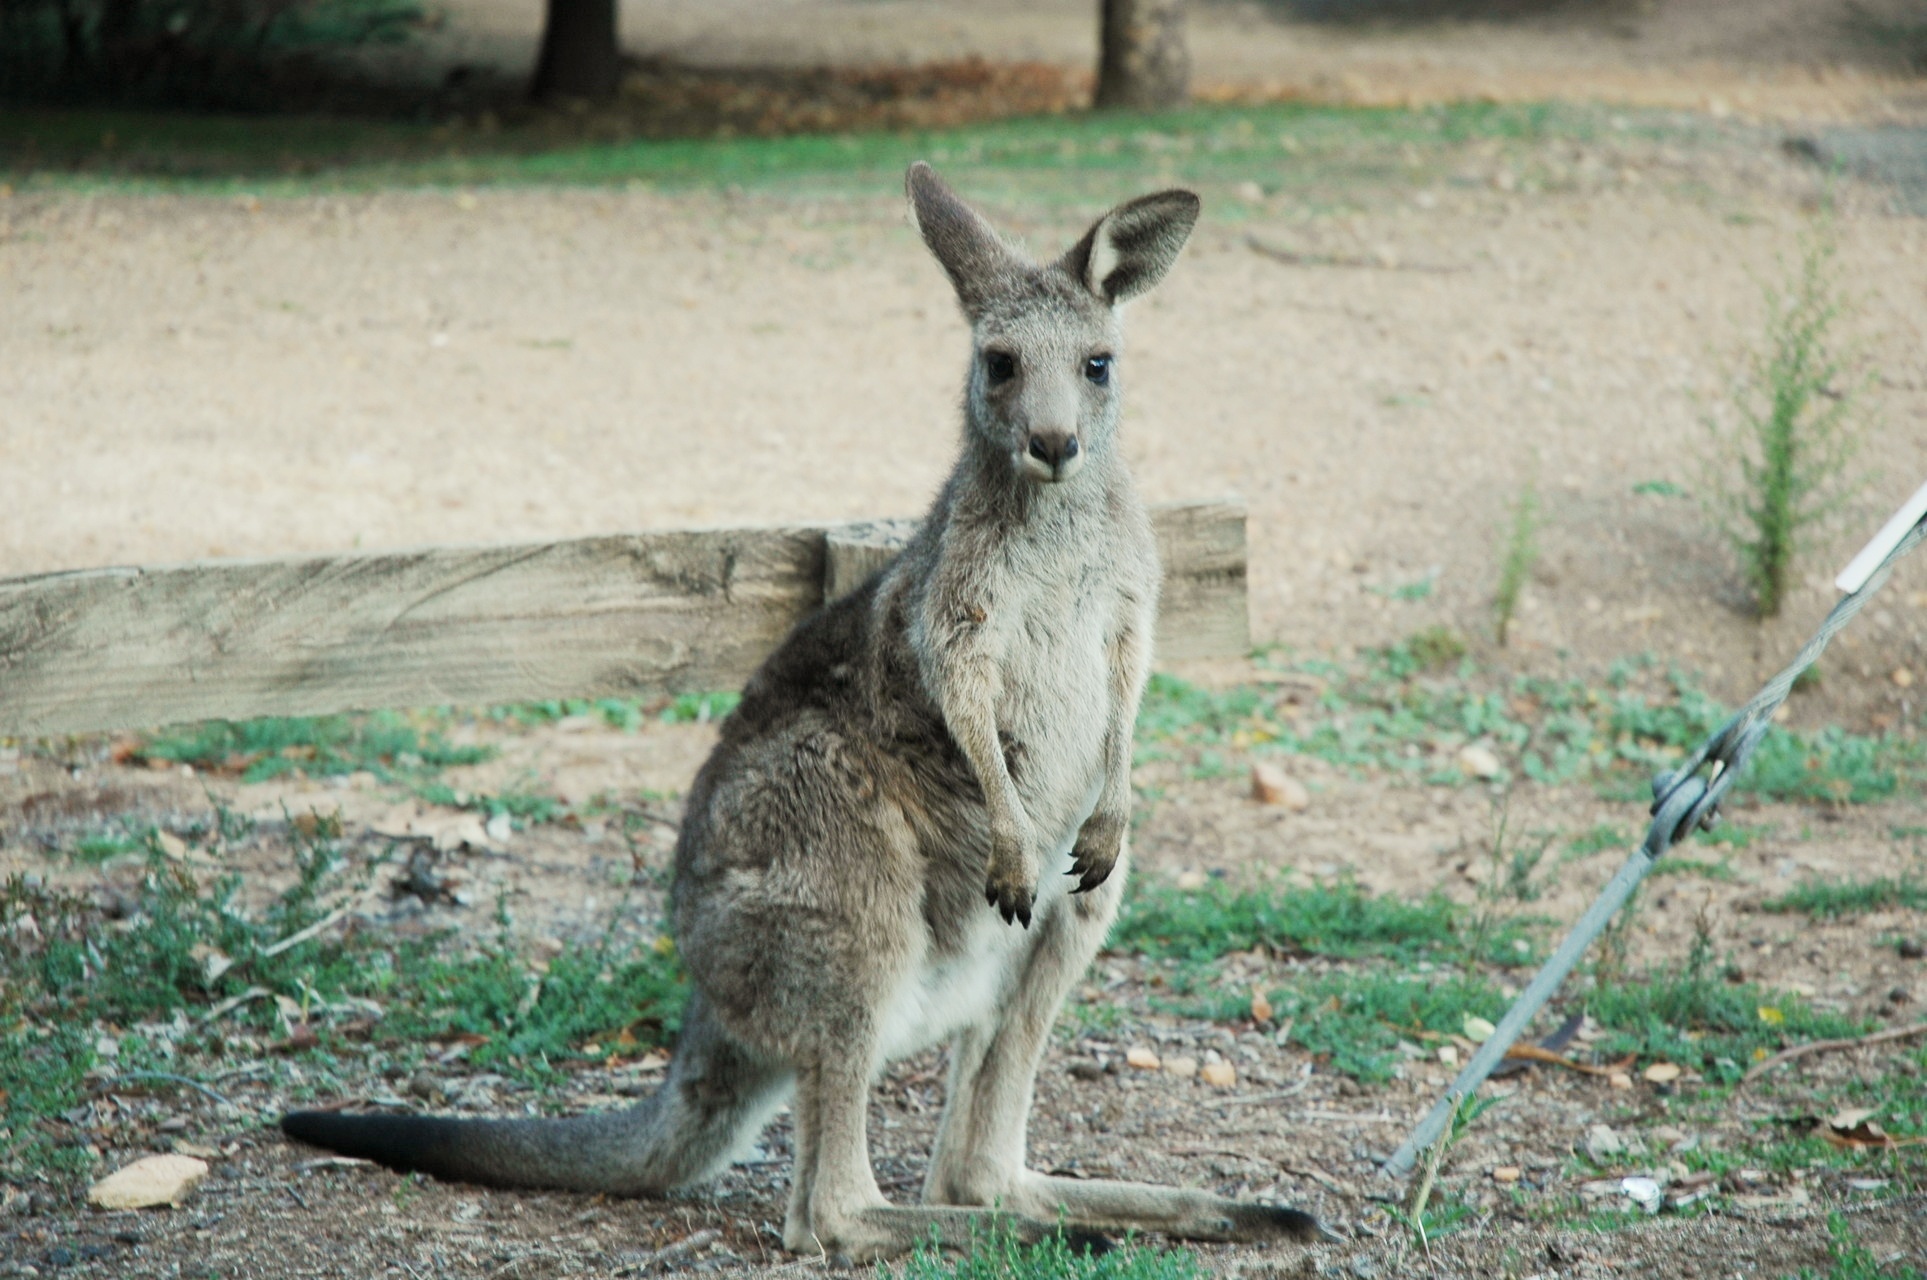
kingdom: Animalia
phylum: Chordata
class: Mammalia
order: Diprotodontia
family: Macropodidae
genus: Macropus
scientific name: Macropus giganteus
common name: Eastern grey kangaroo
